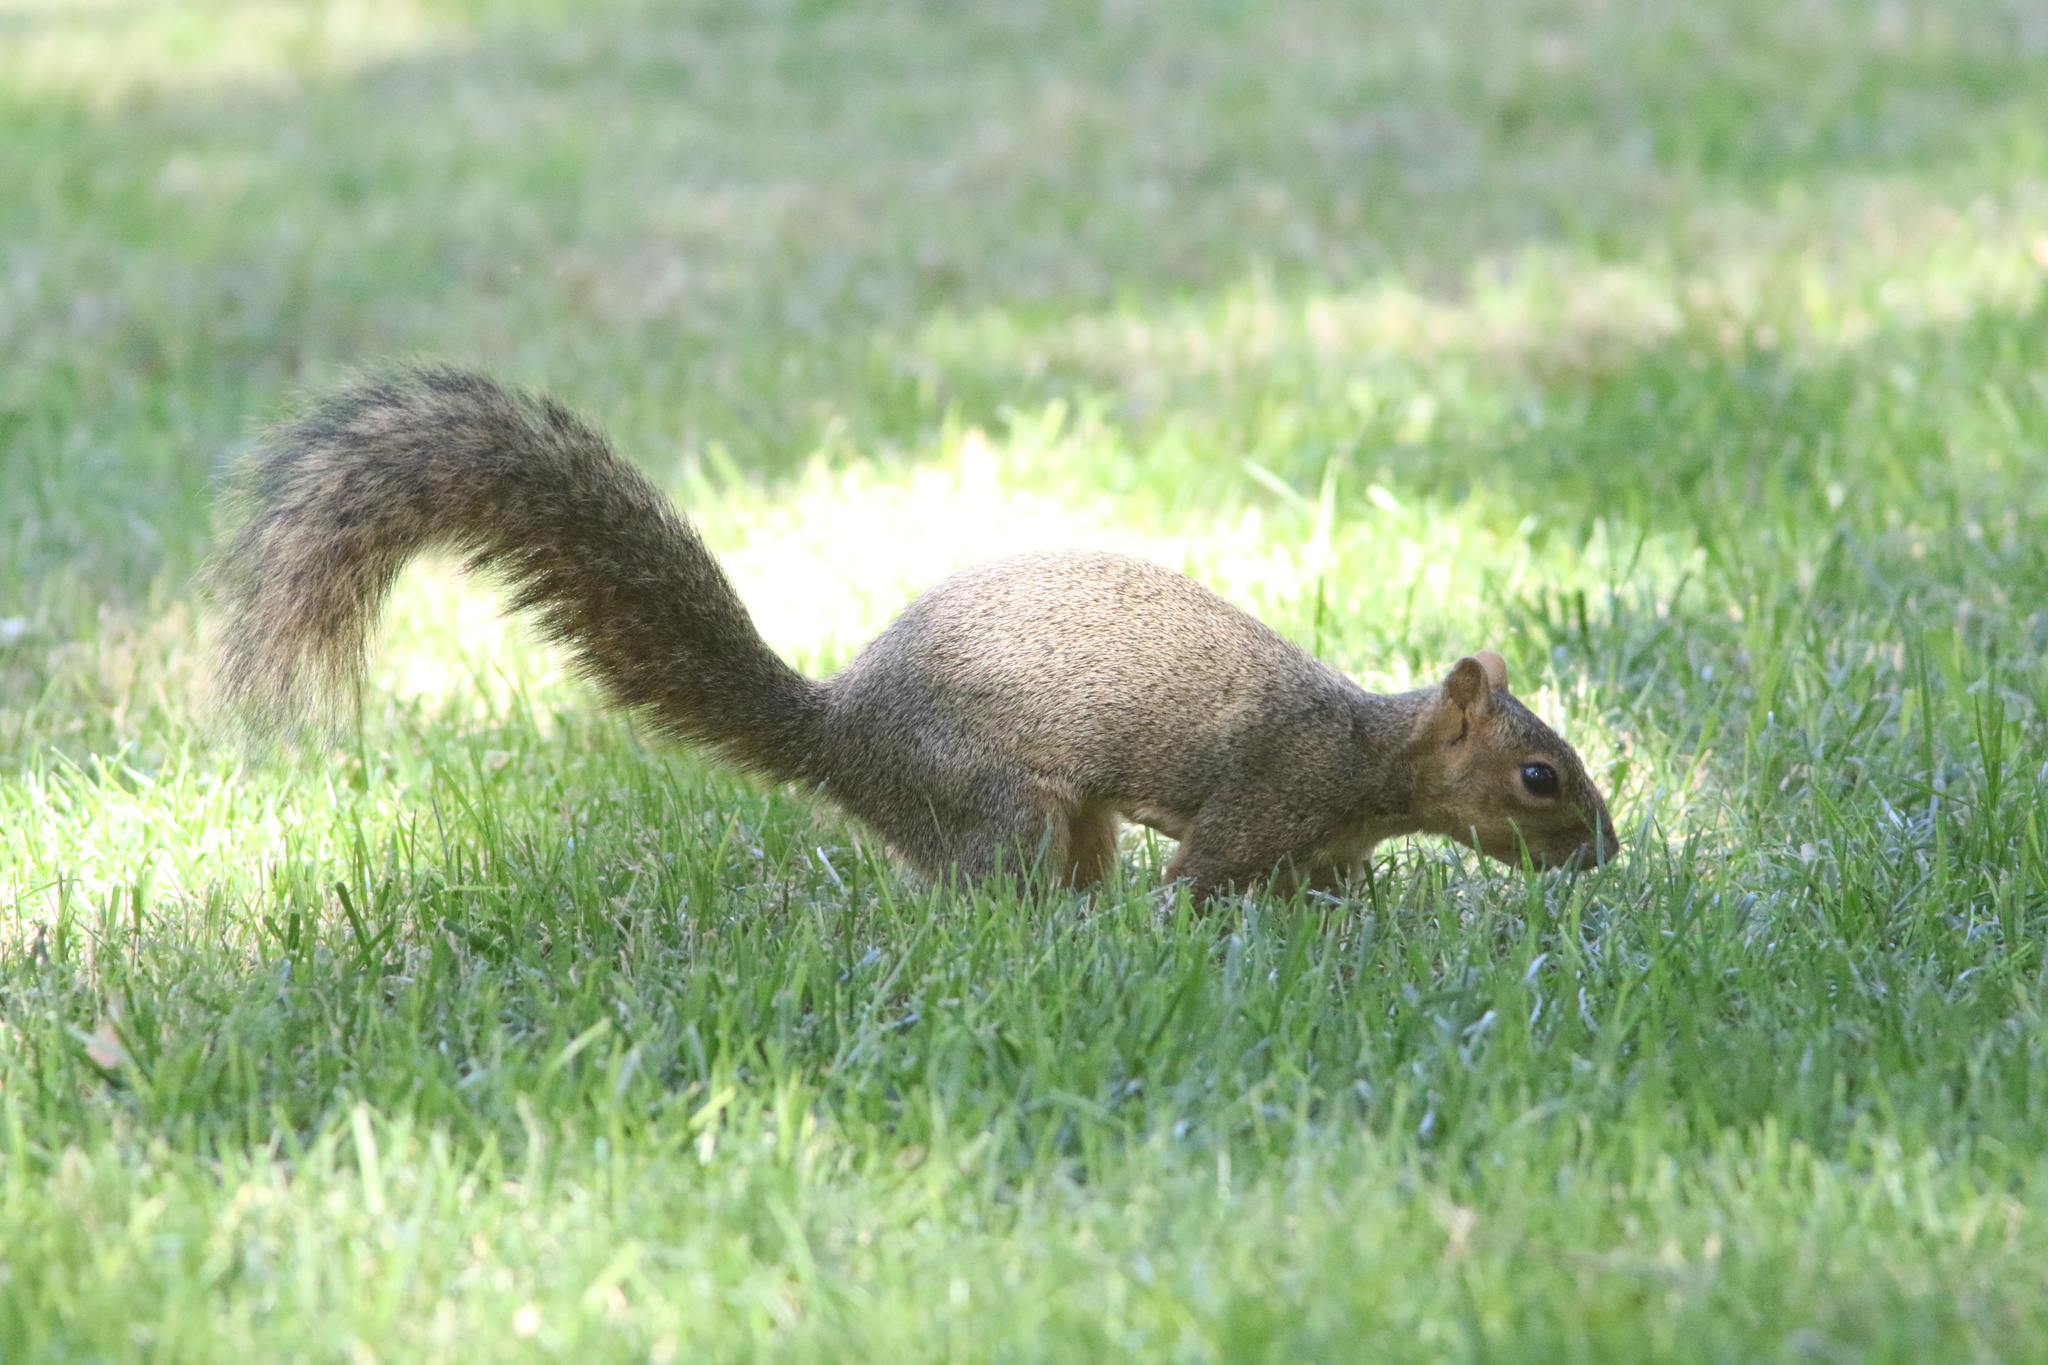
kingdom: Animalia
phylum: Chordata
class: Mammalia
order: Rodentia
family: Sciuridae
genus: Sciurus
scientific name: Sciurus niger
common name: Fox squirrel
